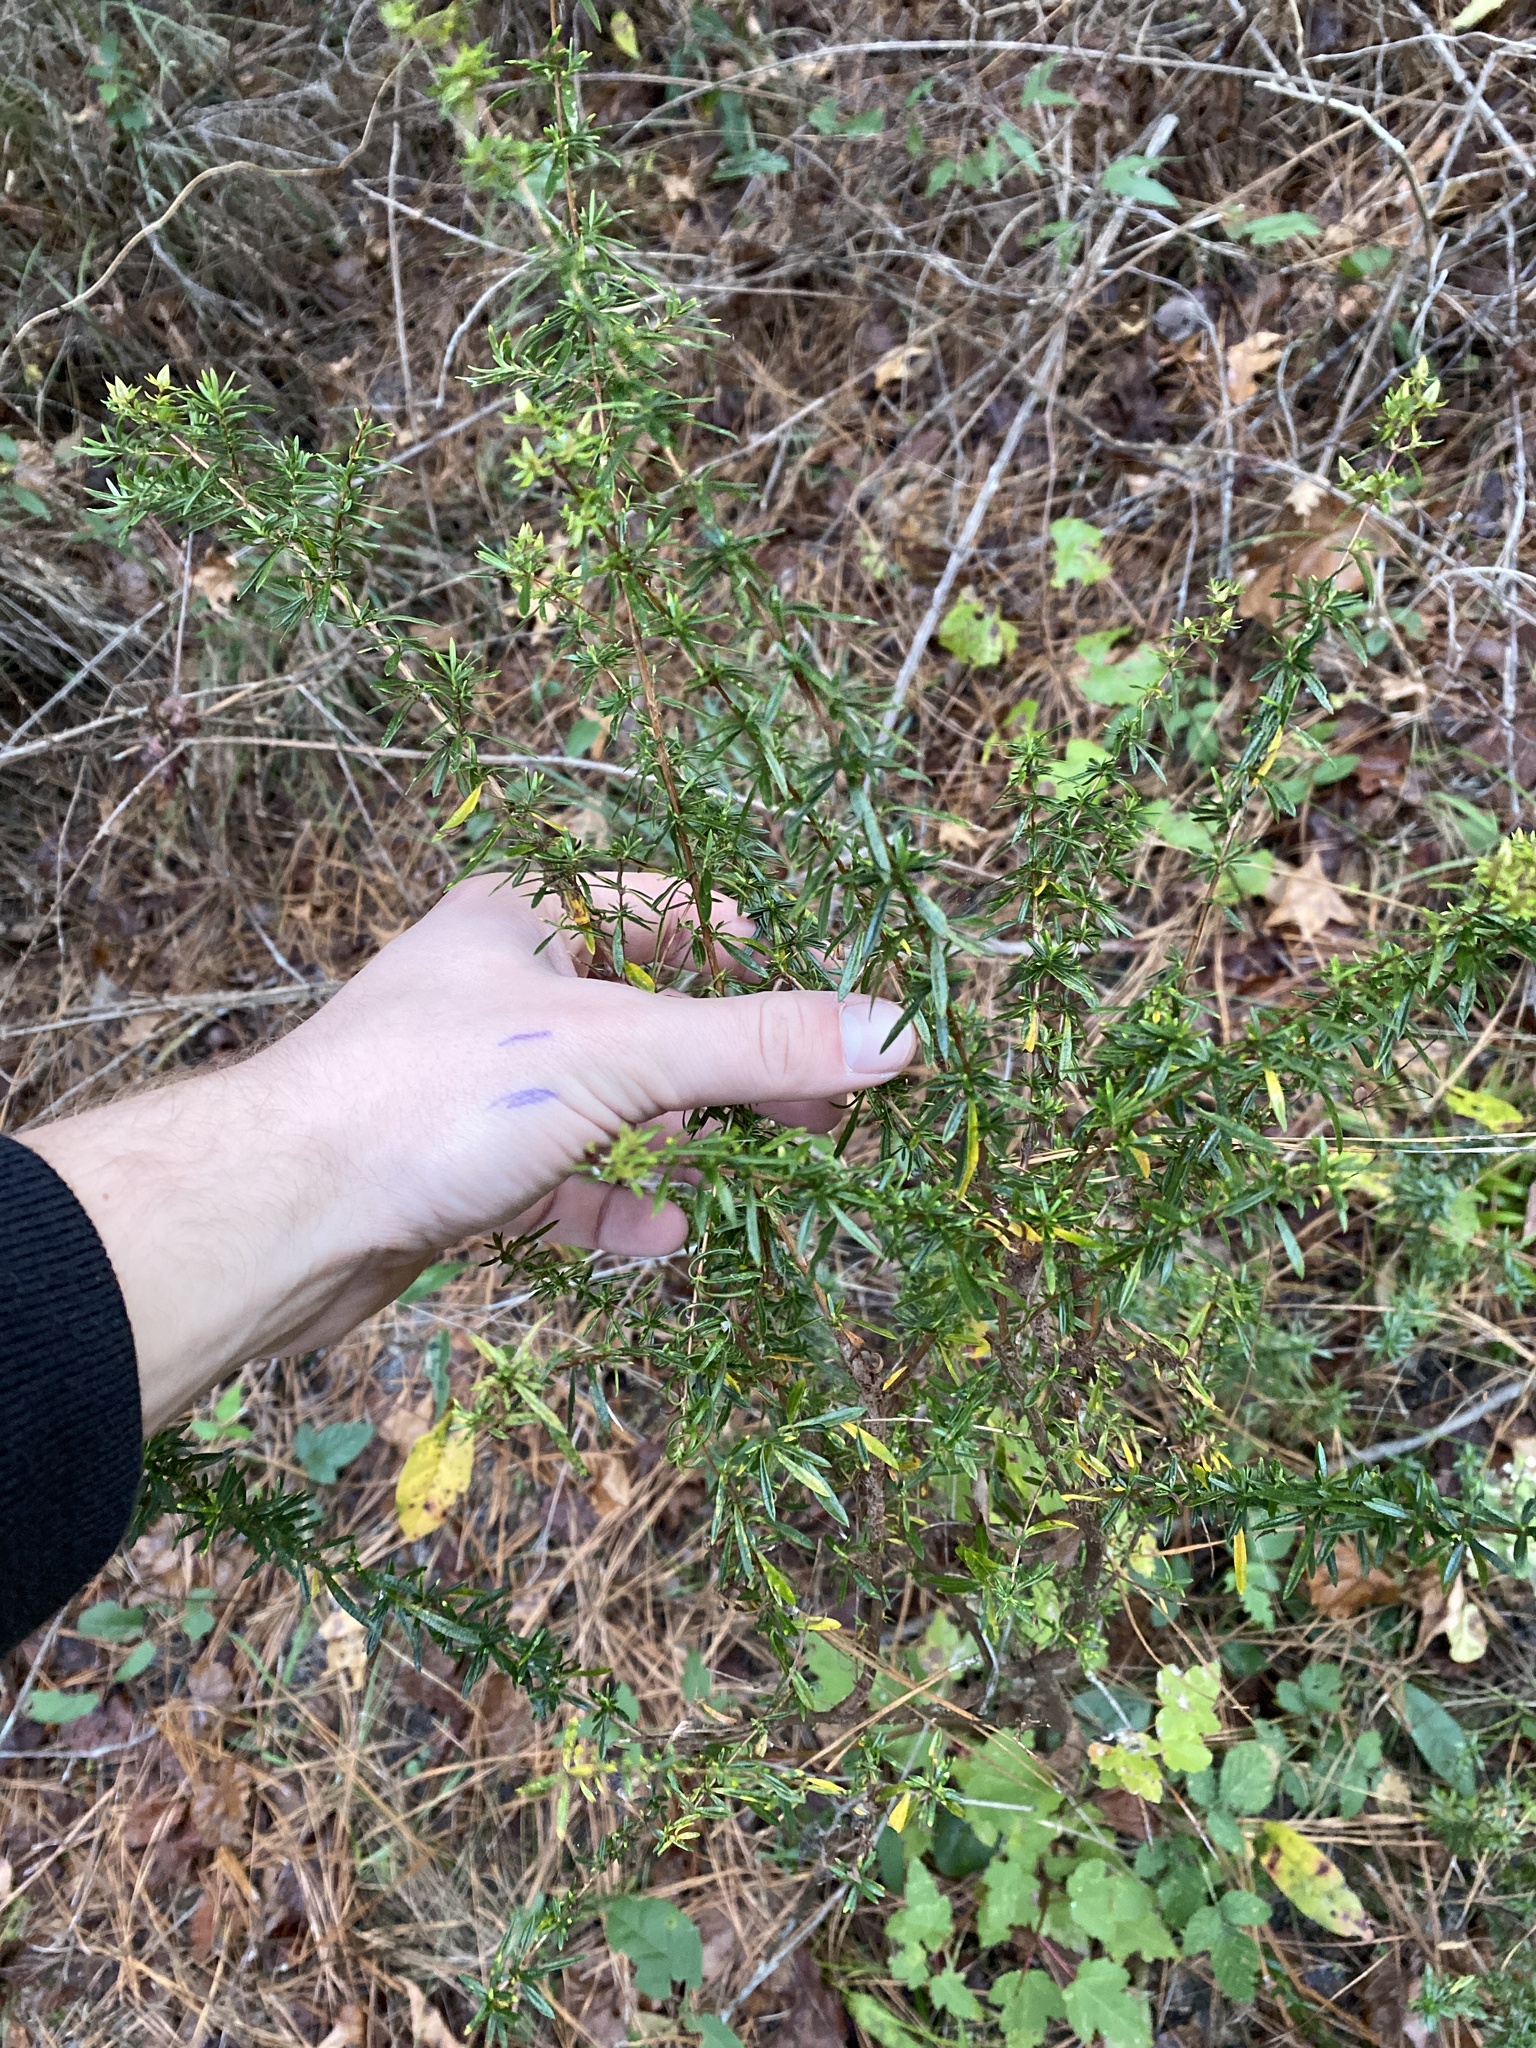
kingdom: Plantae
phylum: Tracheophyta
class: Magnoliopsida
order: Malpighiales
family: Hypericaceae
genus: Hypericum
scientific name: Hypericum galioides
